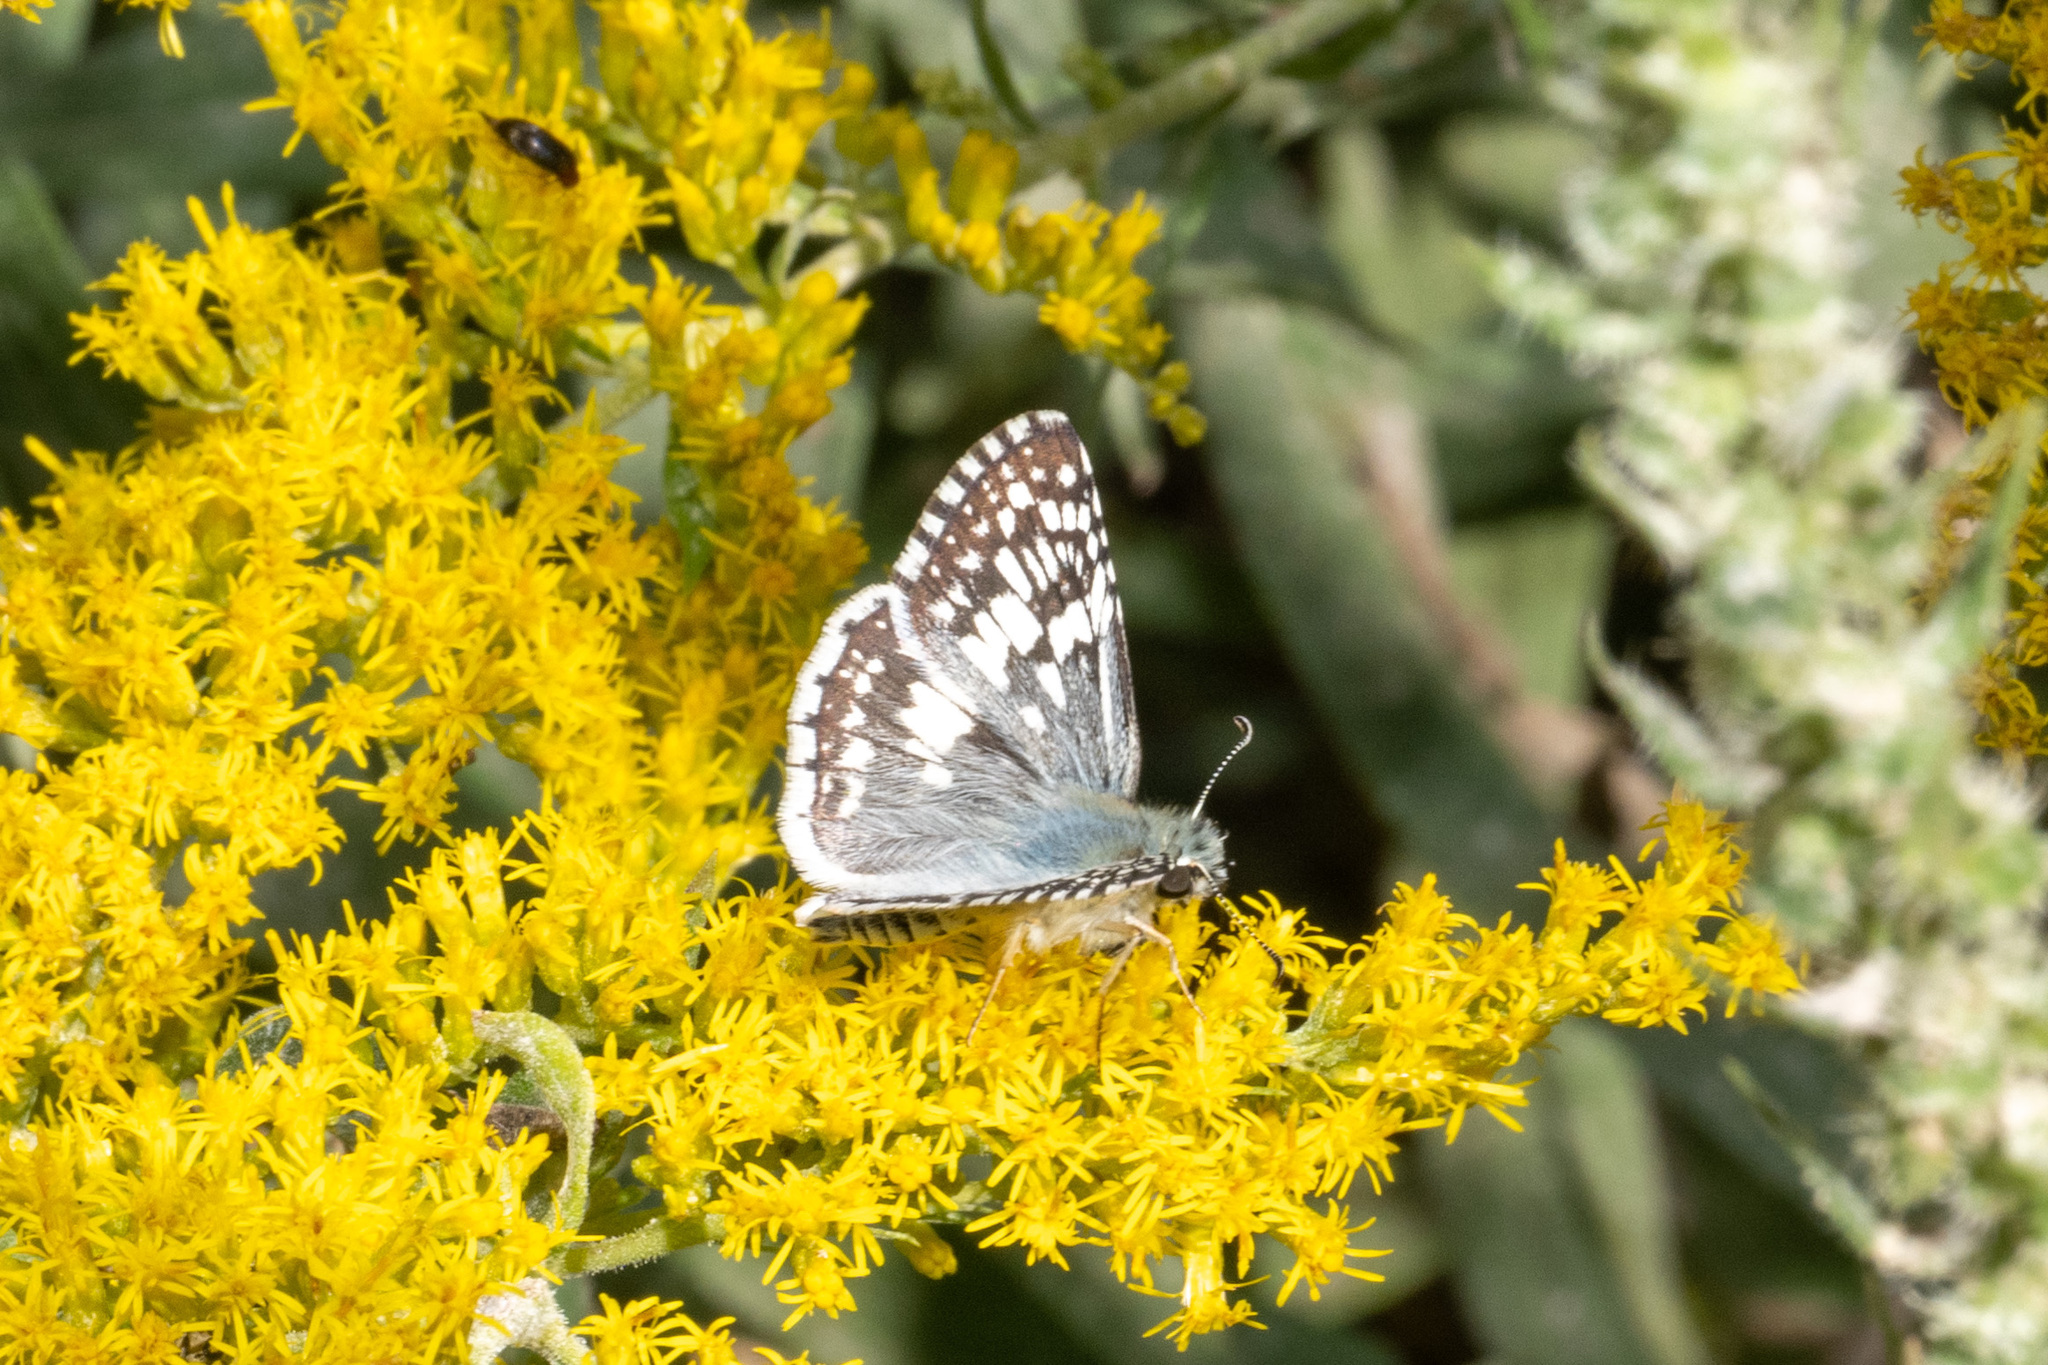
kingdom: Animalia
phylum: Arthropoda
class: Insecta
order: Lepidoptera
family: Hesperiidae
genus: Burnsius
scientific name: Burnsius communis
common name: Common checkered-skipper
